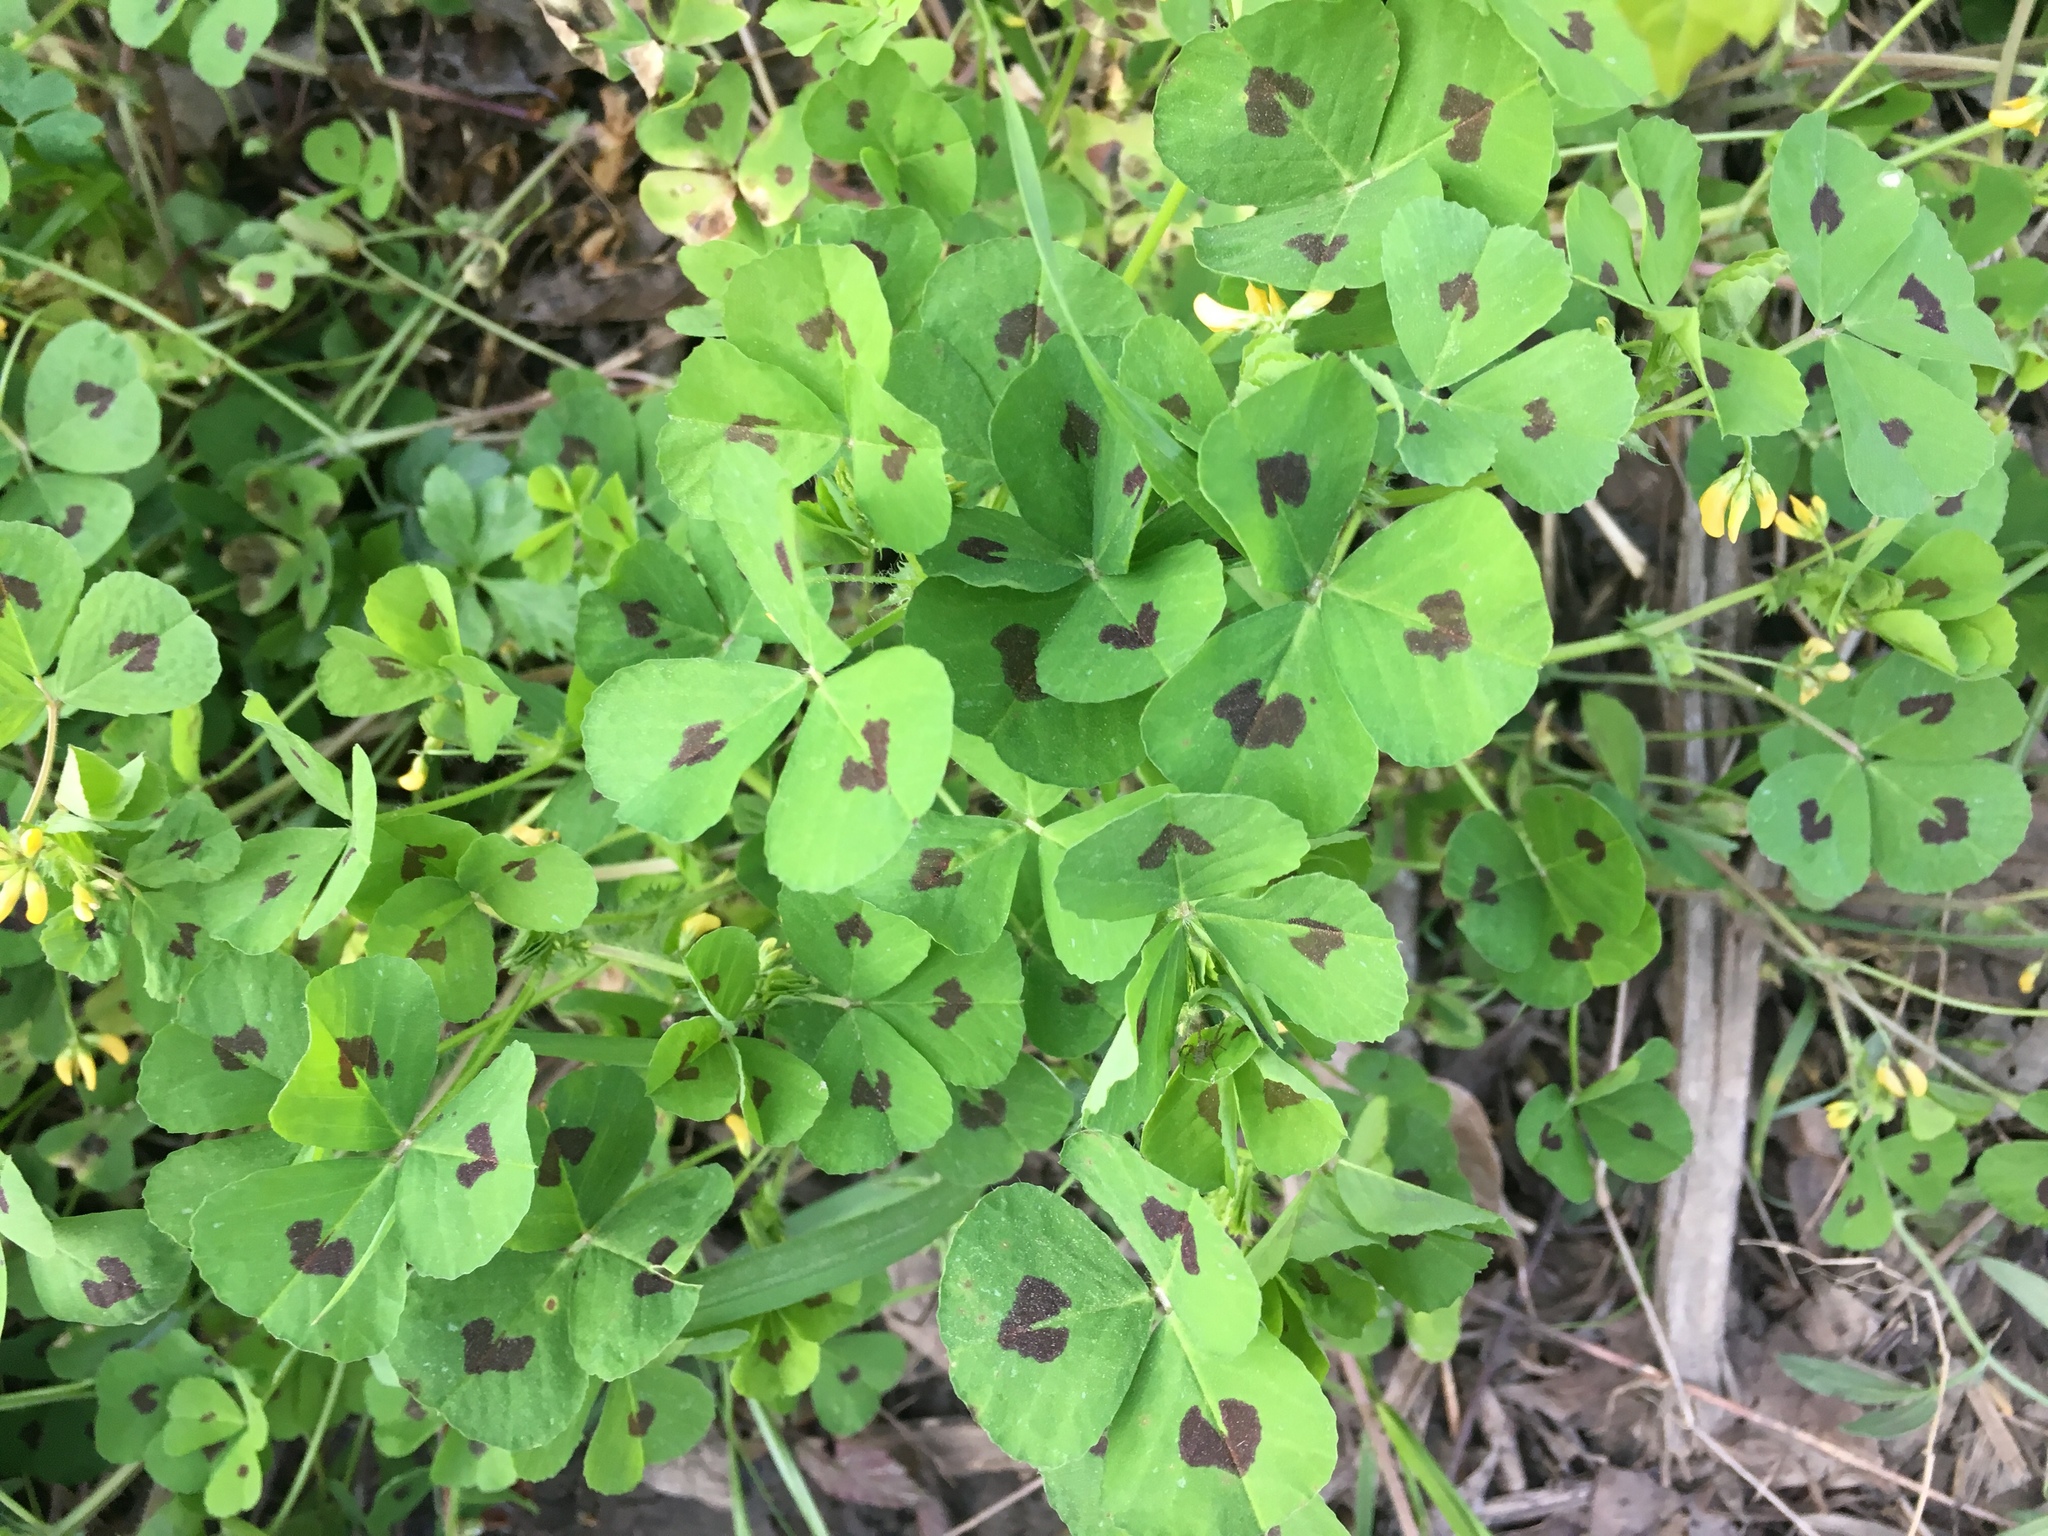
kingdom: Plantae
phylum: Tracheophyta
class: Magnoliopsida
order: Fabales
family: Fabaceae
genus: Medicago
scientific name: Medicago arabica
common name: Spotted medick
